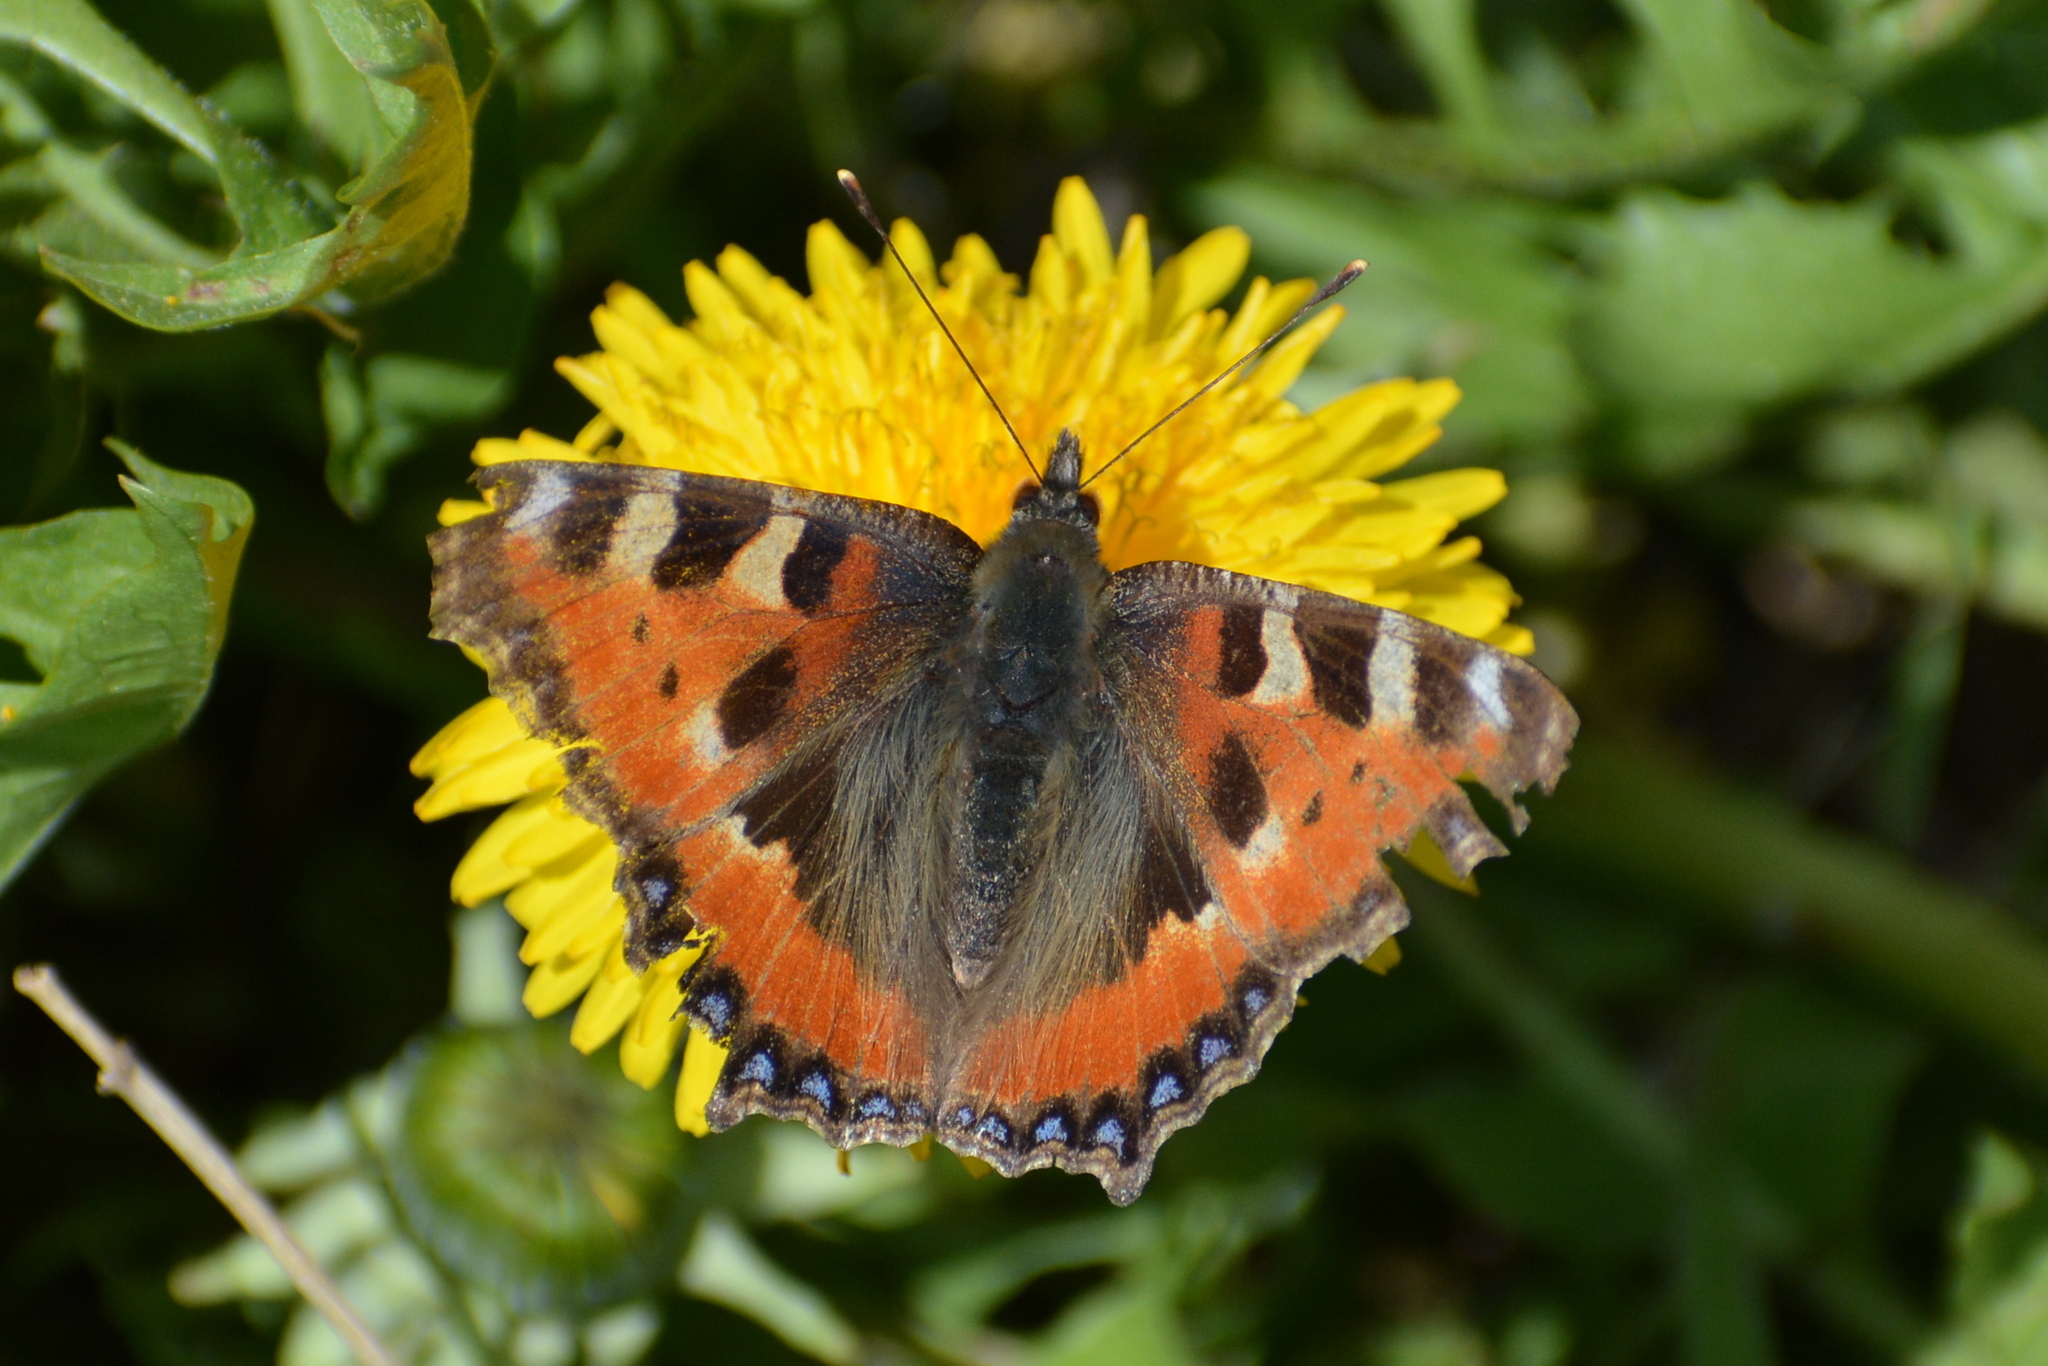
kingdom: Animalia
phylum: Arthropoda
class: Insecta
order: Lepidoptera
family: Nymphalidae
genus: Aglais
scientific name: Aglais urticae
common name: Small tortoiseshell
